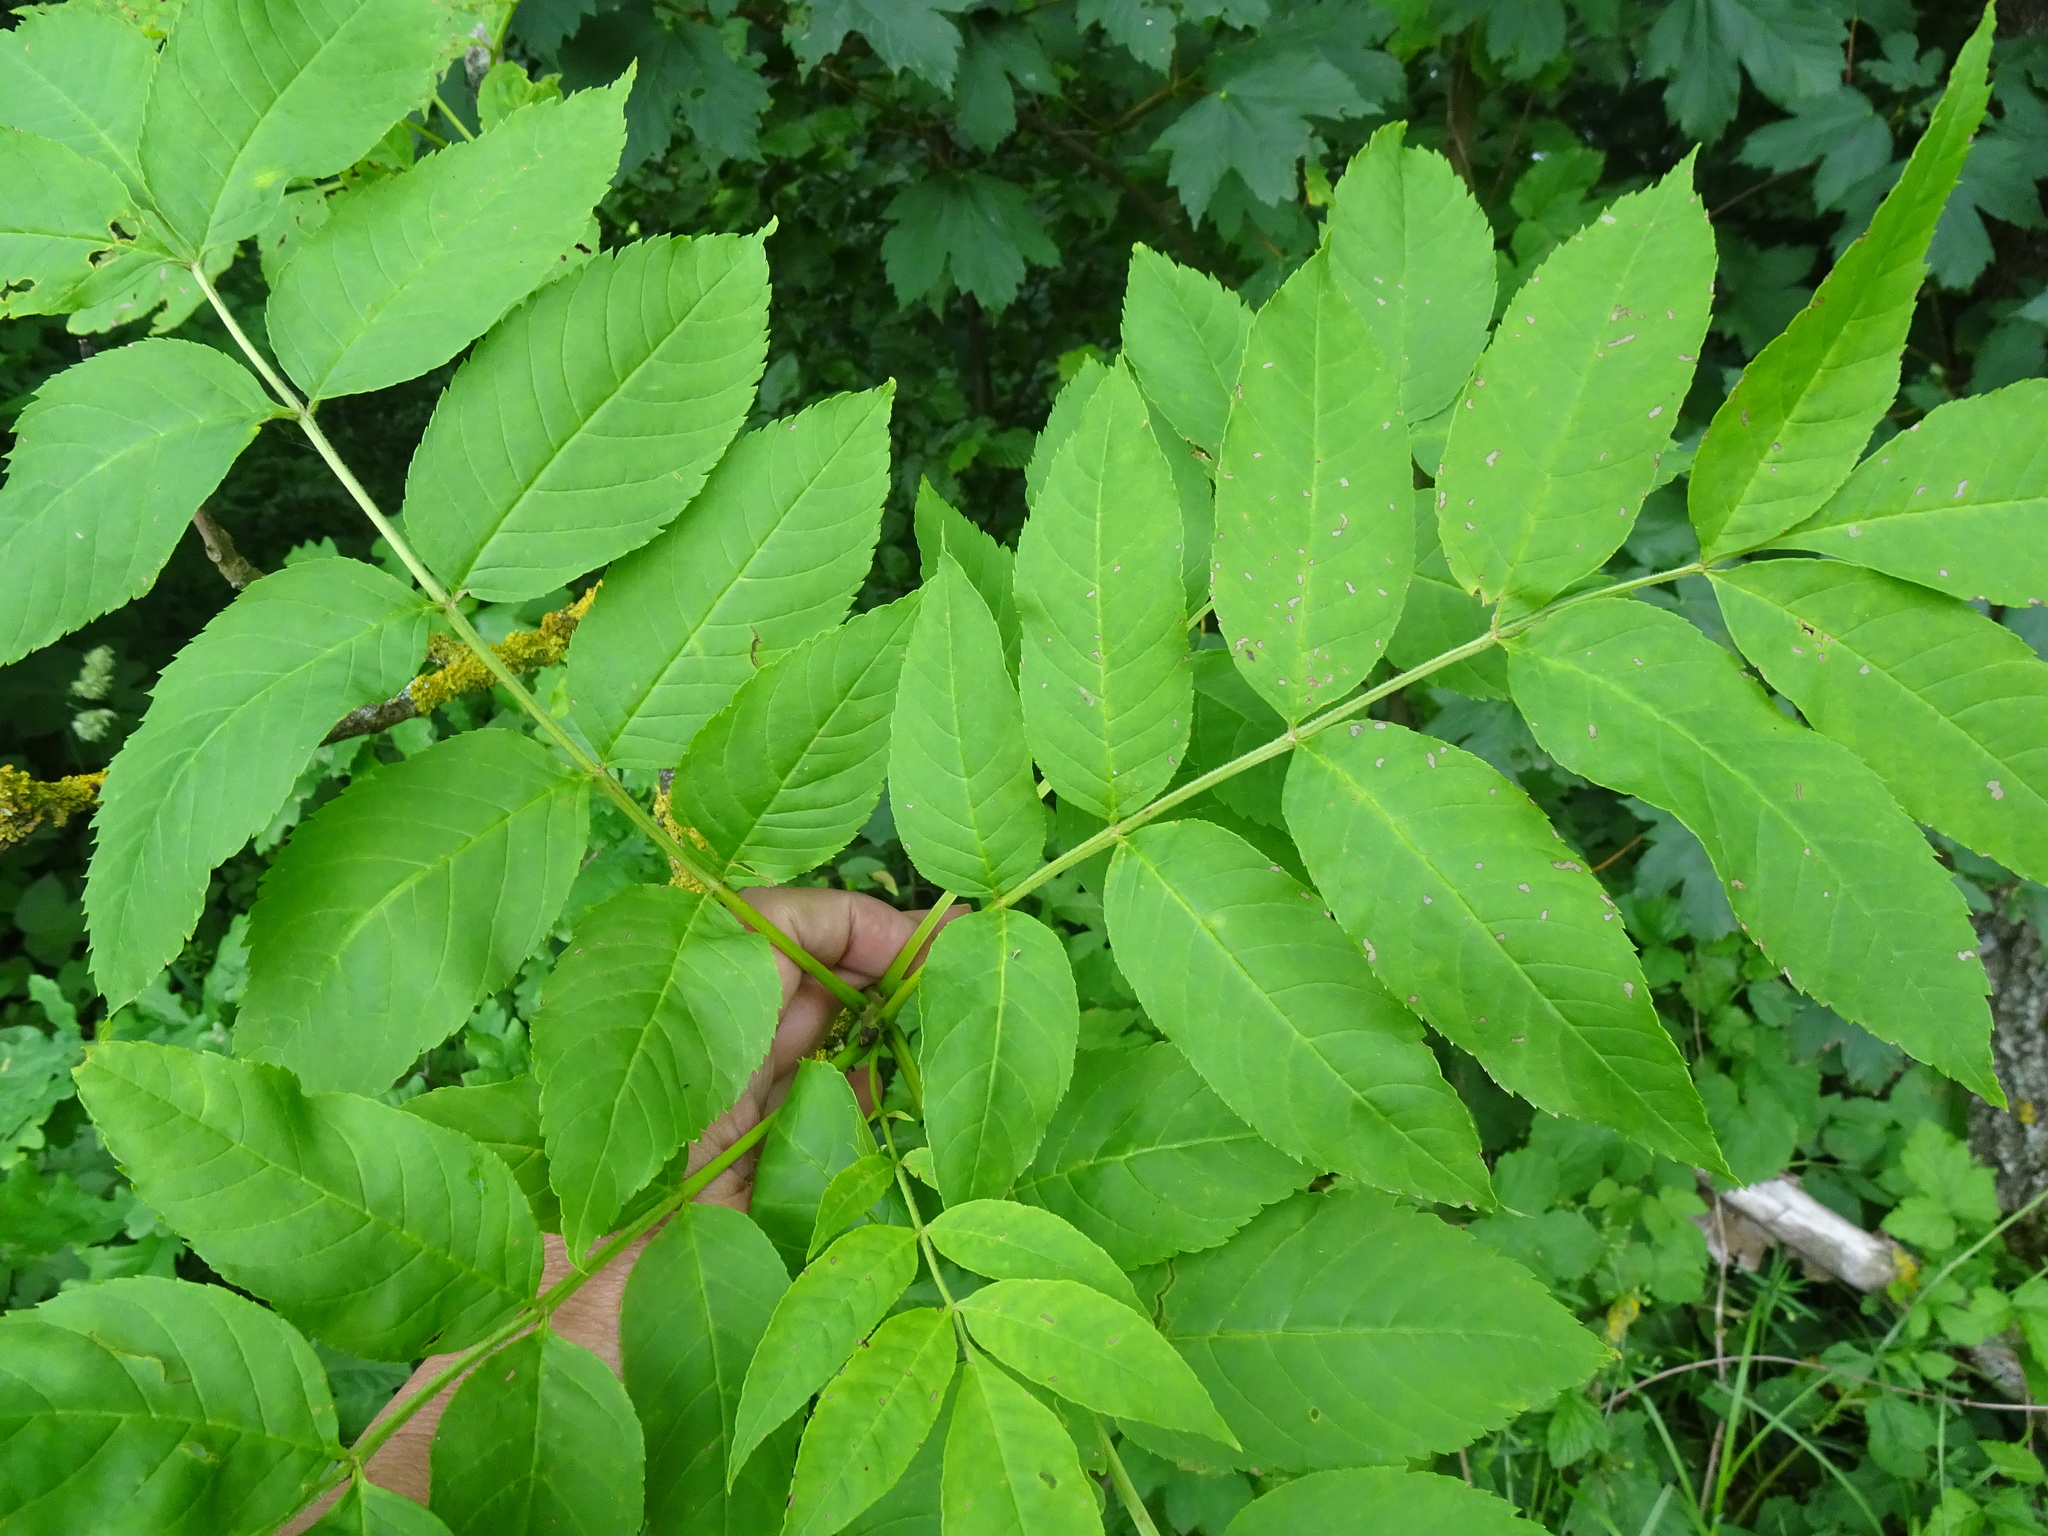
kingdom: Plantae
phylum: Tracheophyta
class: Magnoliopsida
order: Lamiales
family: Oleaceae
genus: Fraxinus
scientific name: Fraxinus excelsior
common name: European ash
